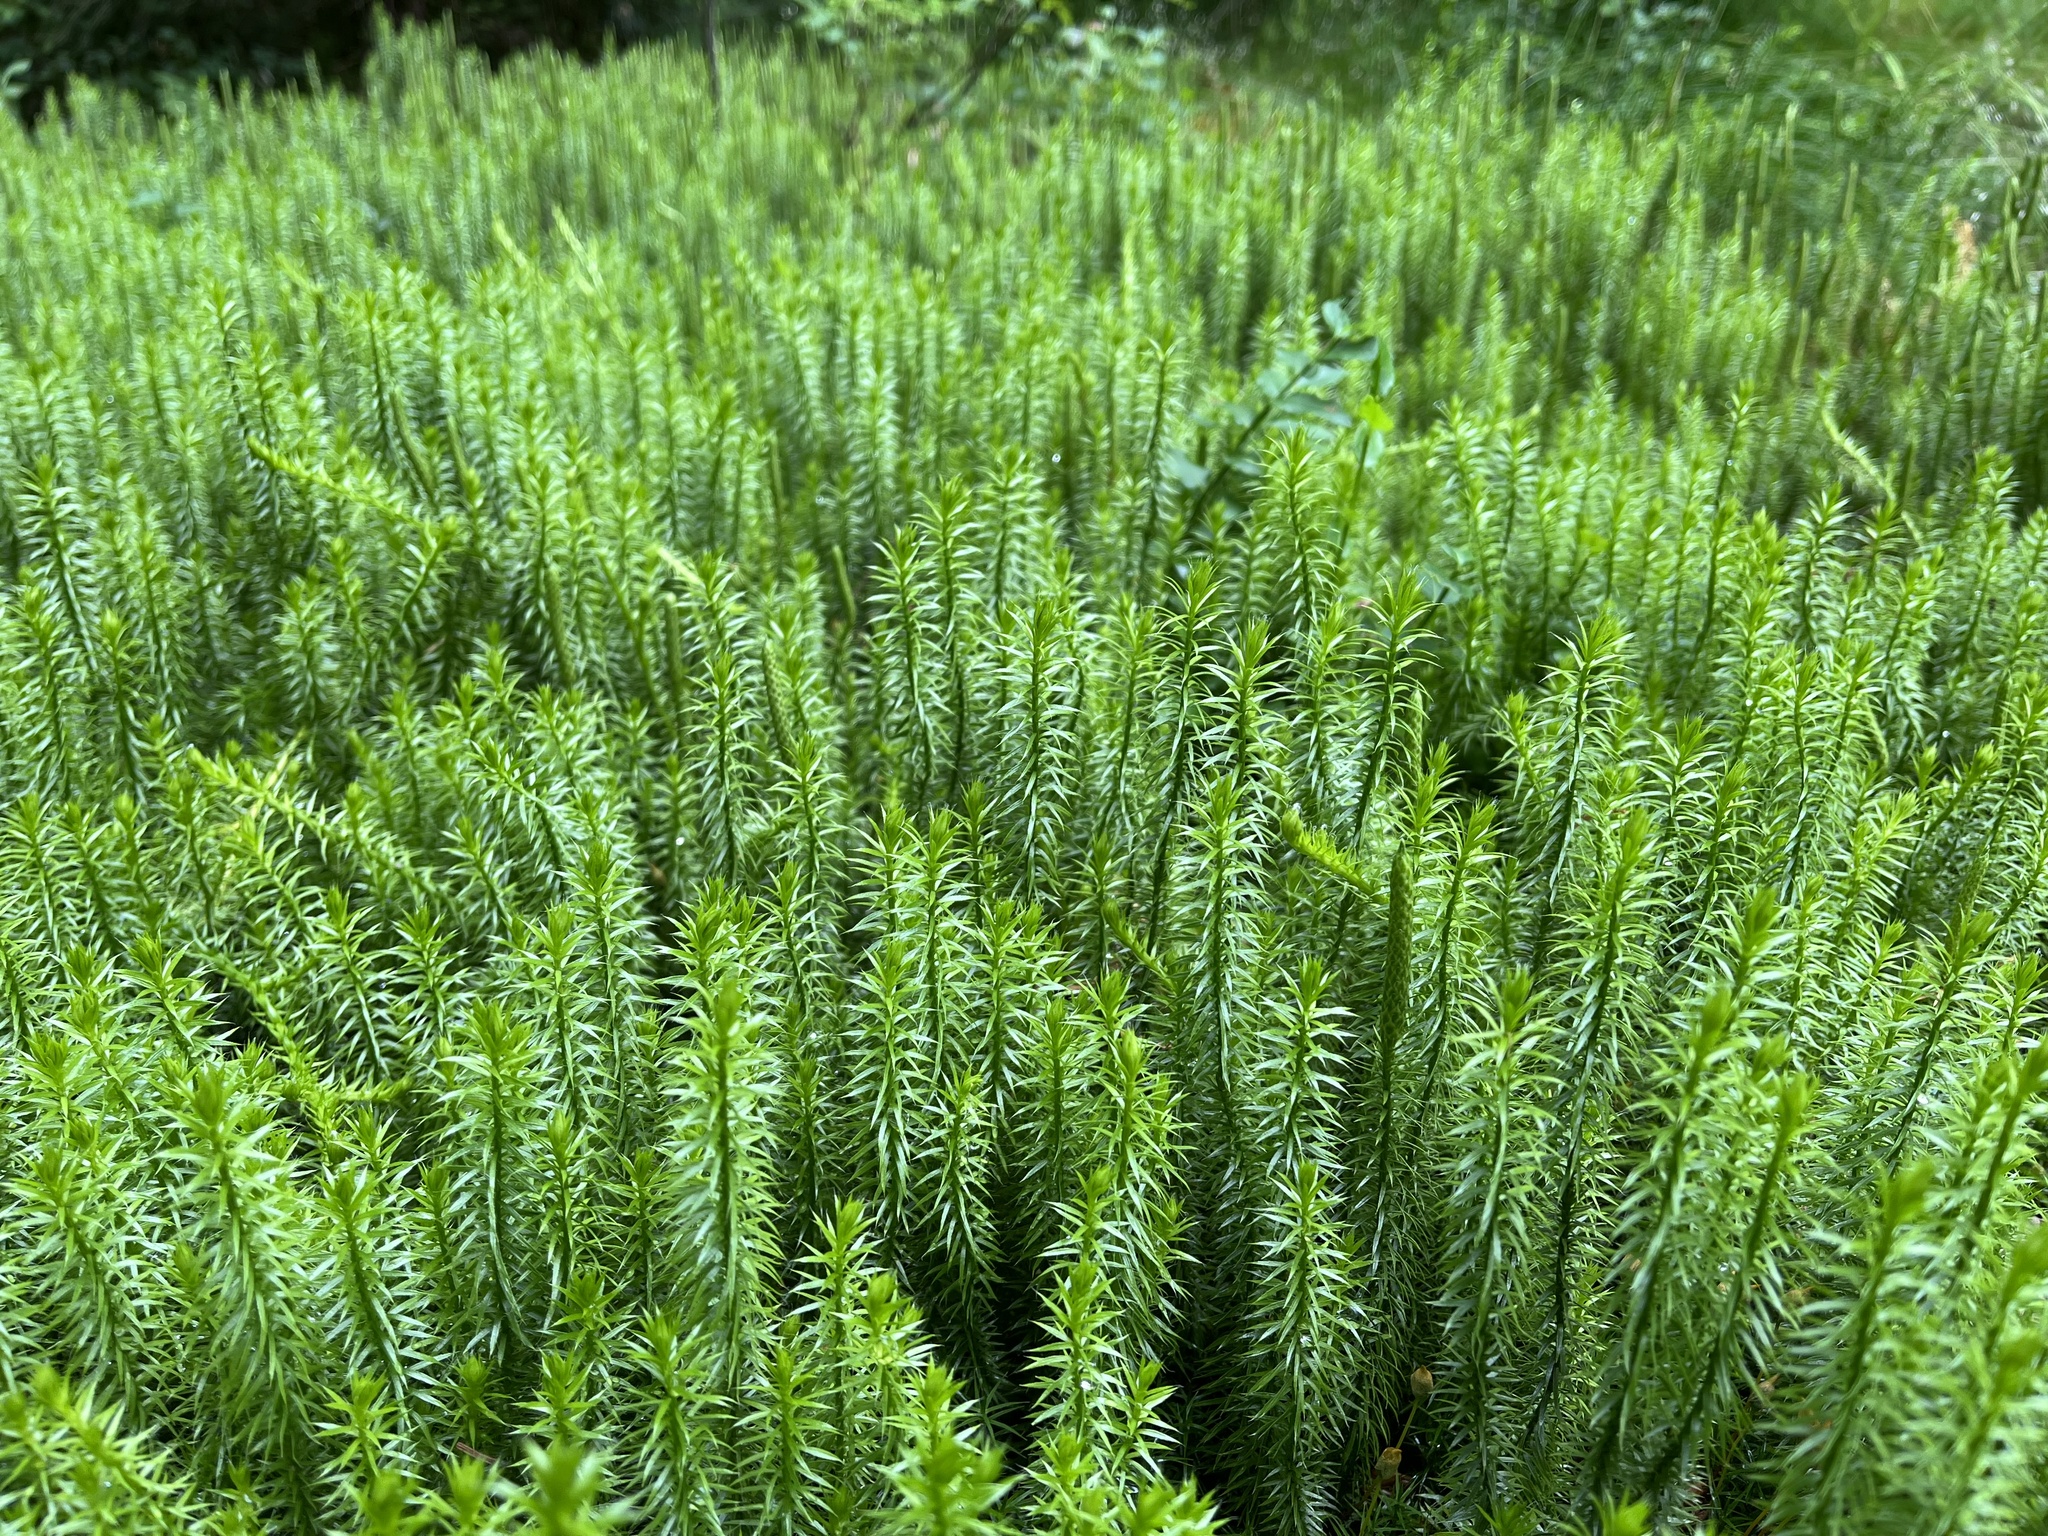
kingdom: Plantae
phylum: Tracheophyta
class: Lycopodiopsida
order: Lycopodiales
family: Lycopodiaceae
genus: Spinulum
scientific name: Spinulum annotinum
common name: Interrupted club-moss
